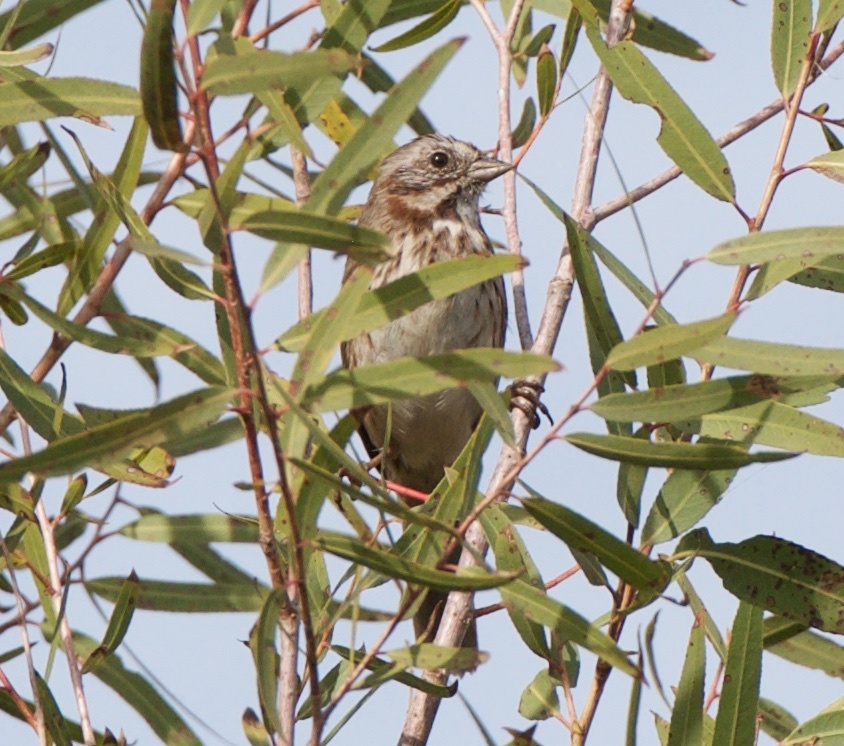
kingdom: Animalia
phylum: Chordata
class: Aves
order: Passeriformes
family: Passerellidae
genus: Melospiza
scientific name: Melospiza melodia
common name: Song sparrow
